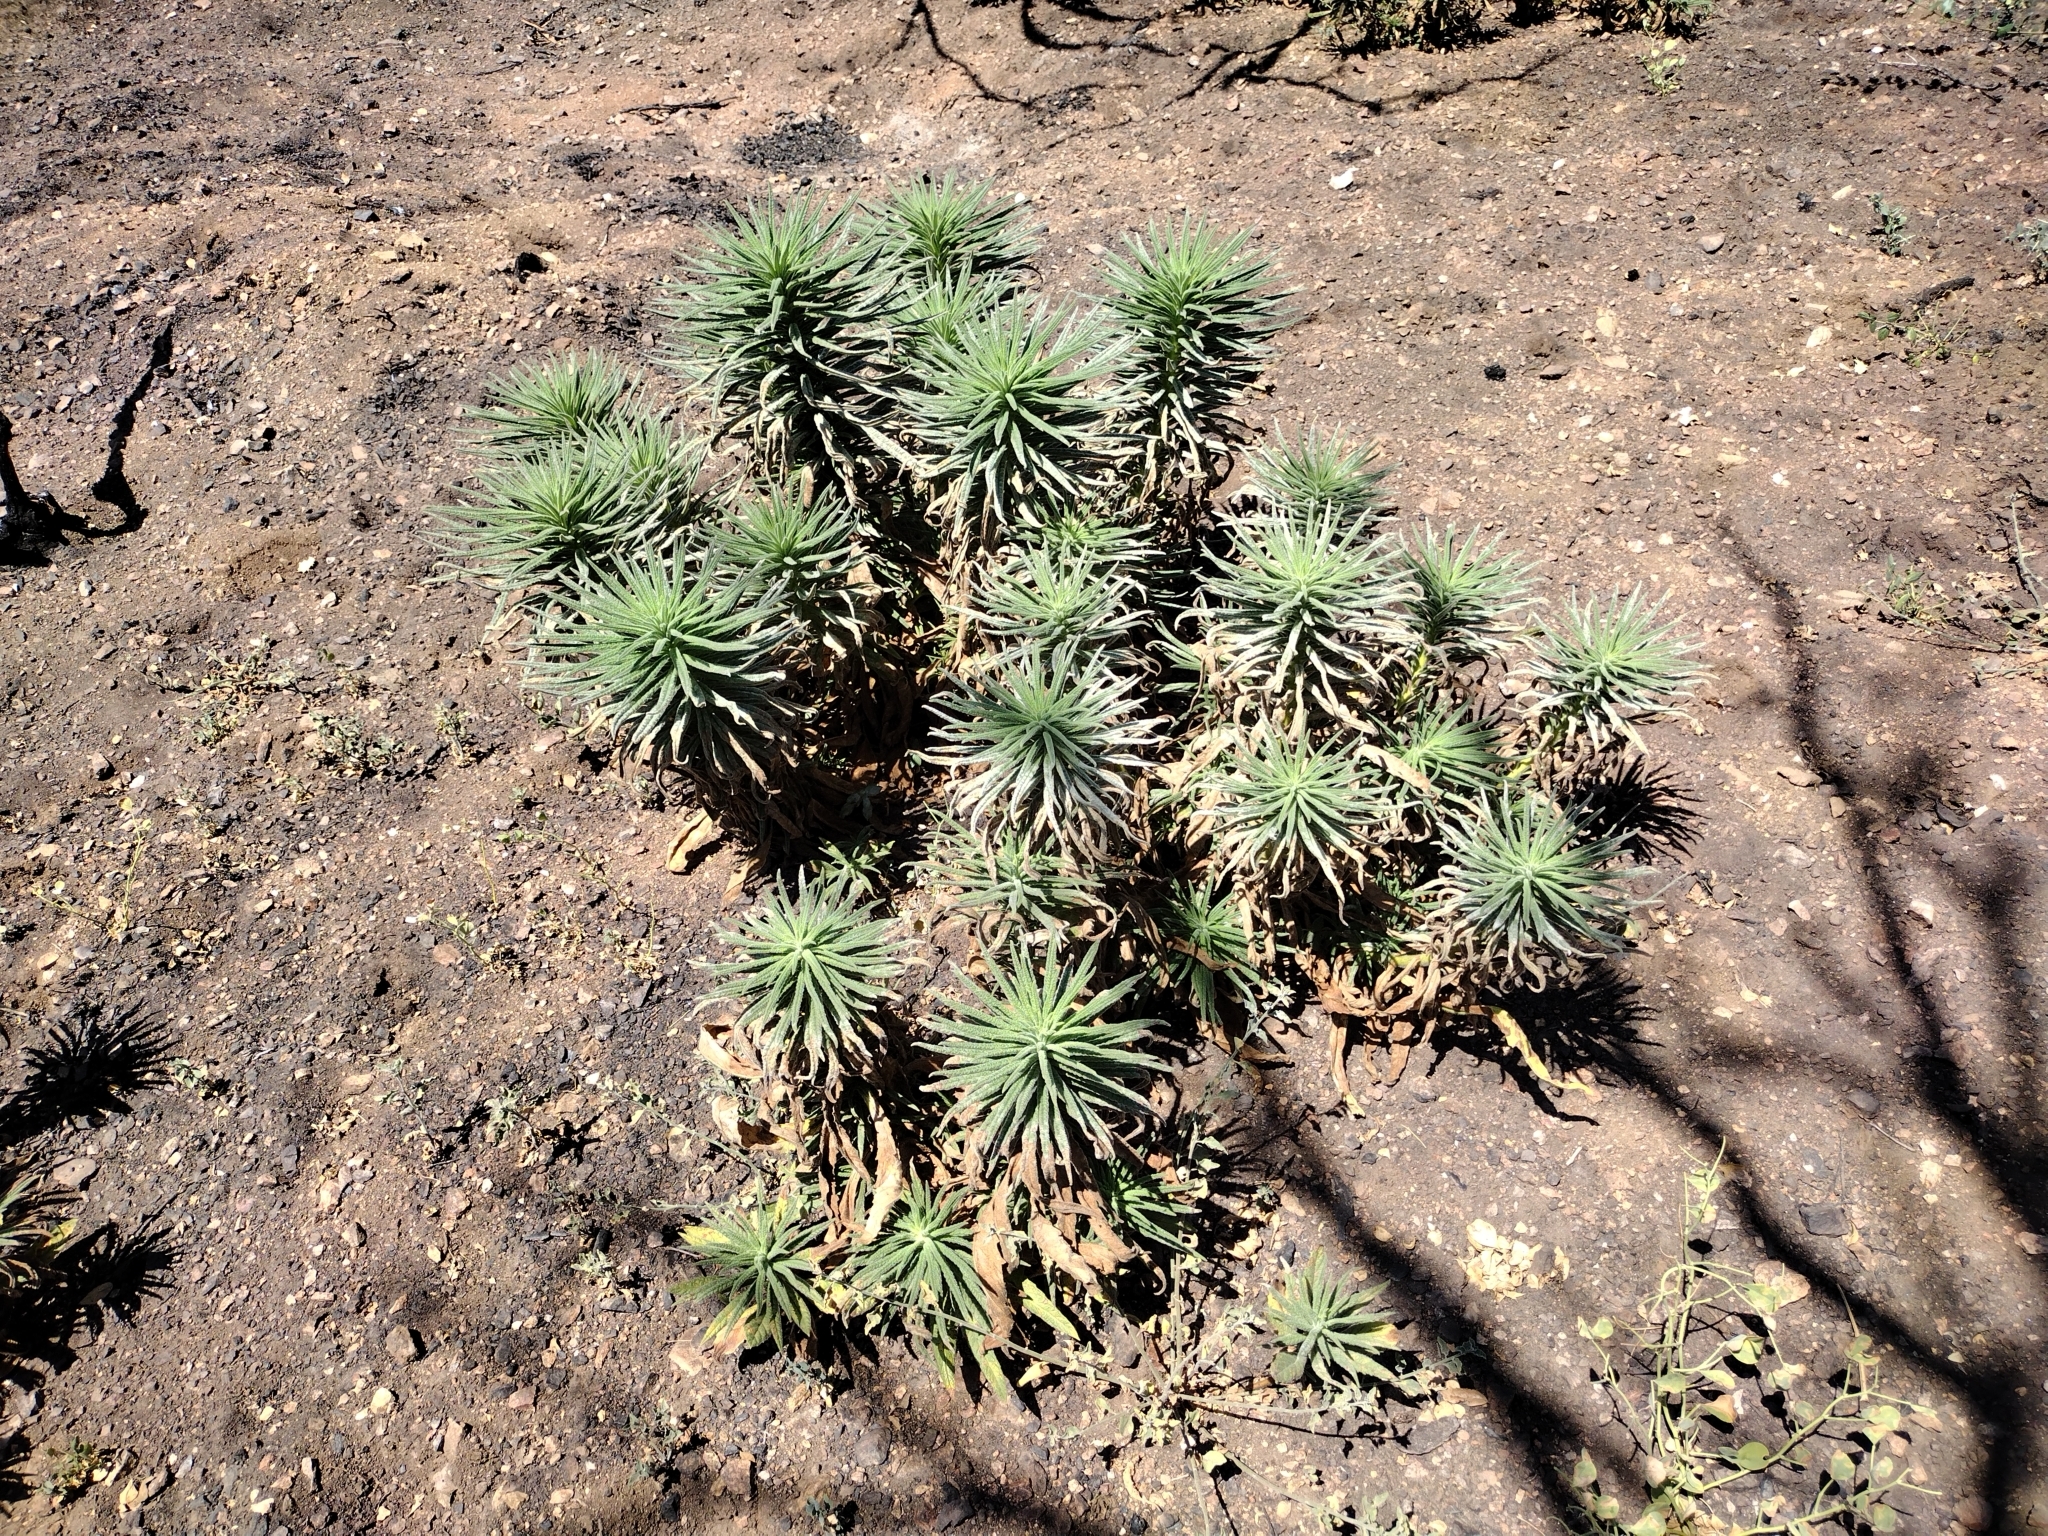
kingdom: Plantae
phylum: Tracheophyta
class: Magnoliopsida
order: Boraginales
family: Namaceae
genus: Turricula
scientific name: Turricula parryi
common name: Poodle-dog-bush
